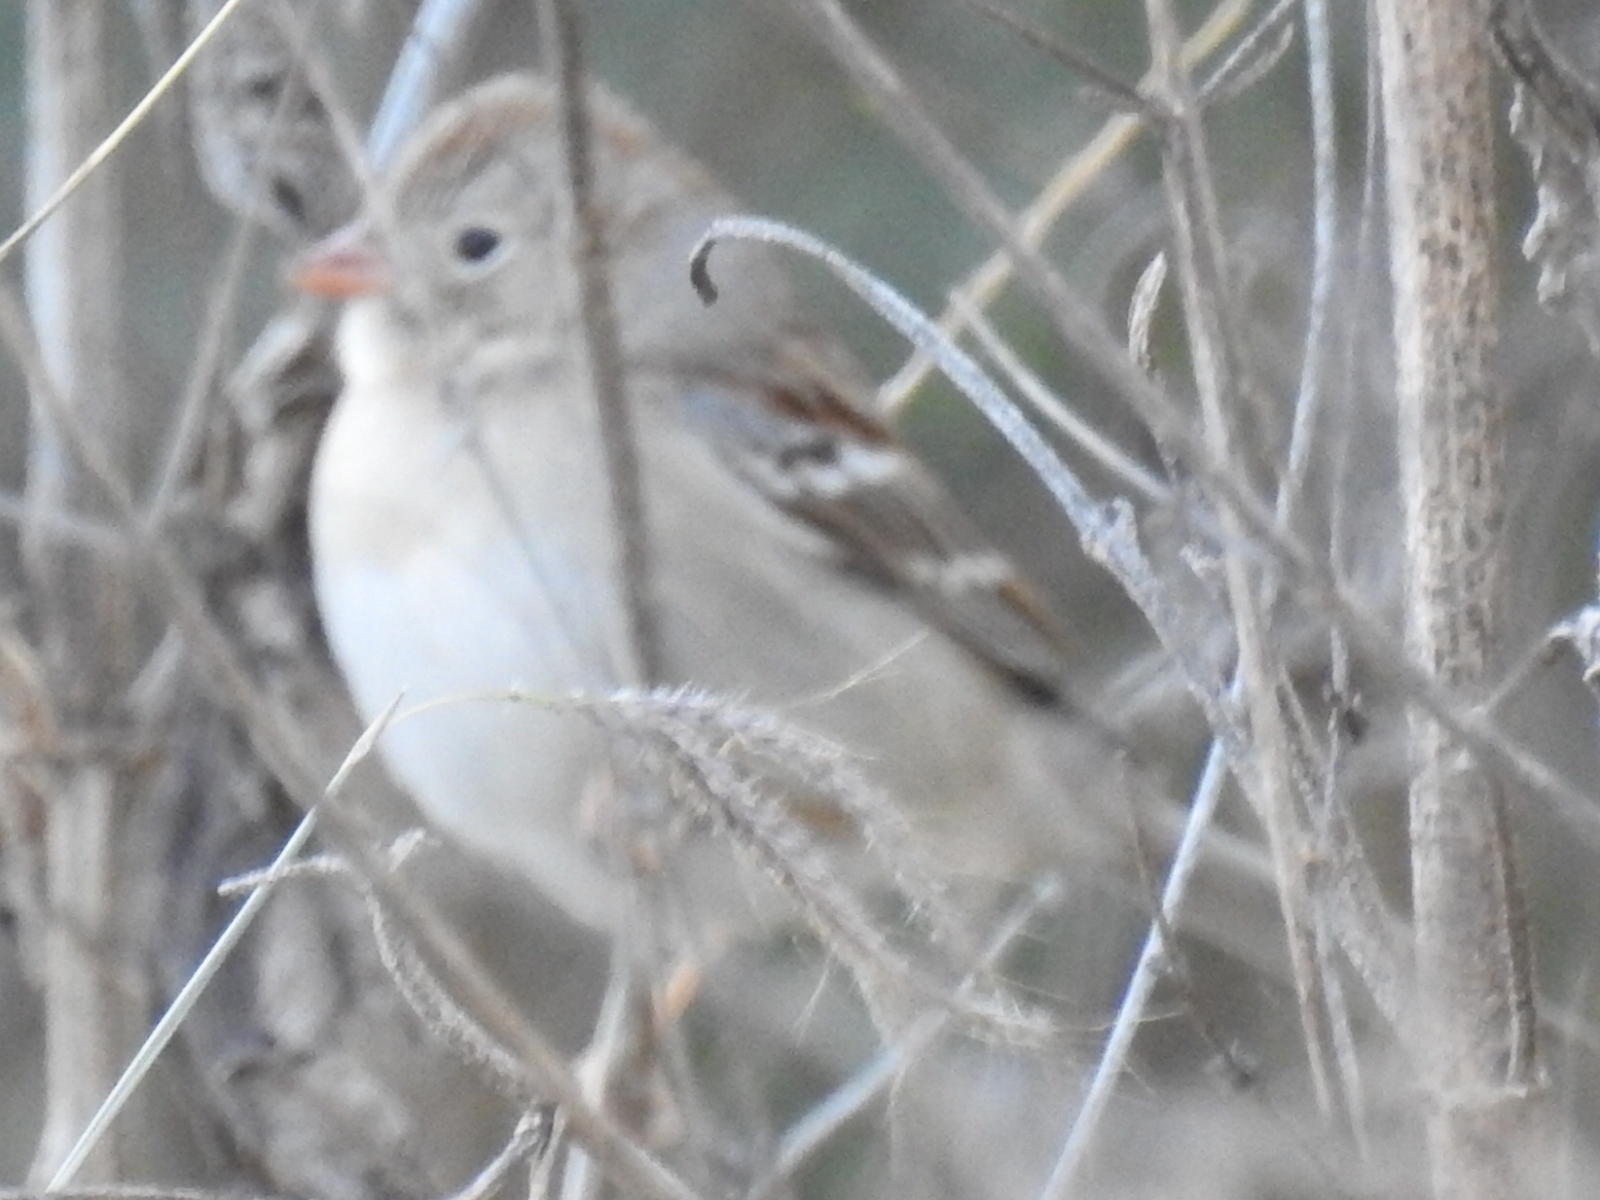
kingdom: Animalia
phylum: Chordata
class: Aves
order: Passeriformes
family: Passerellidae
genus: Spizella
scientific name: Spizella pusilla
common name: Field sparrow
